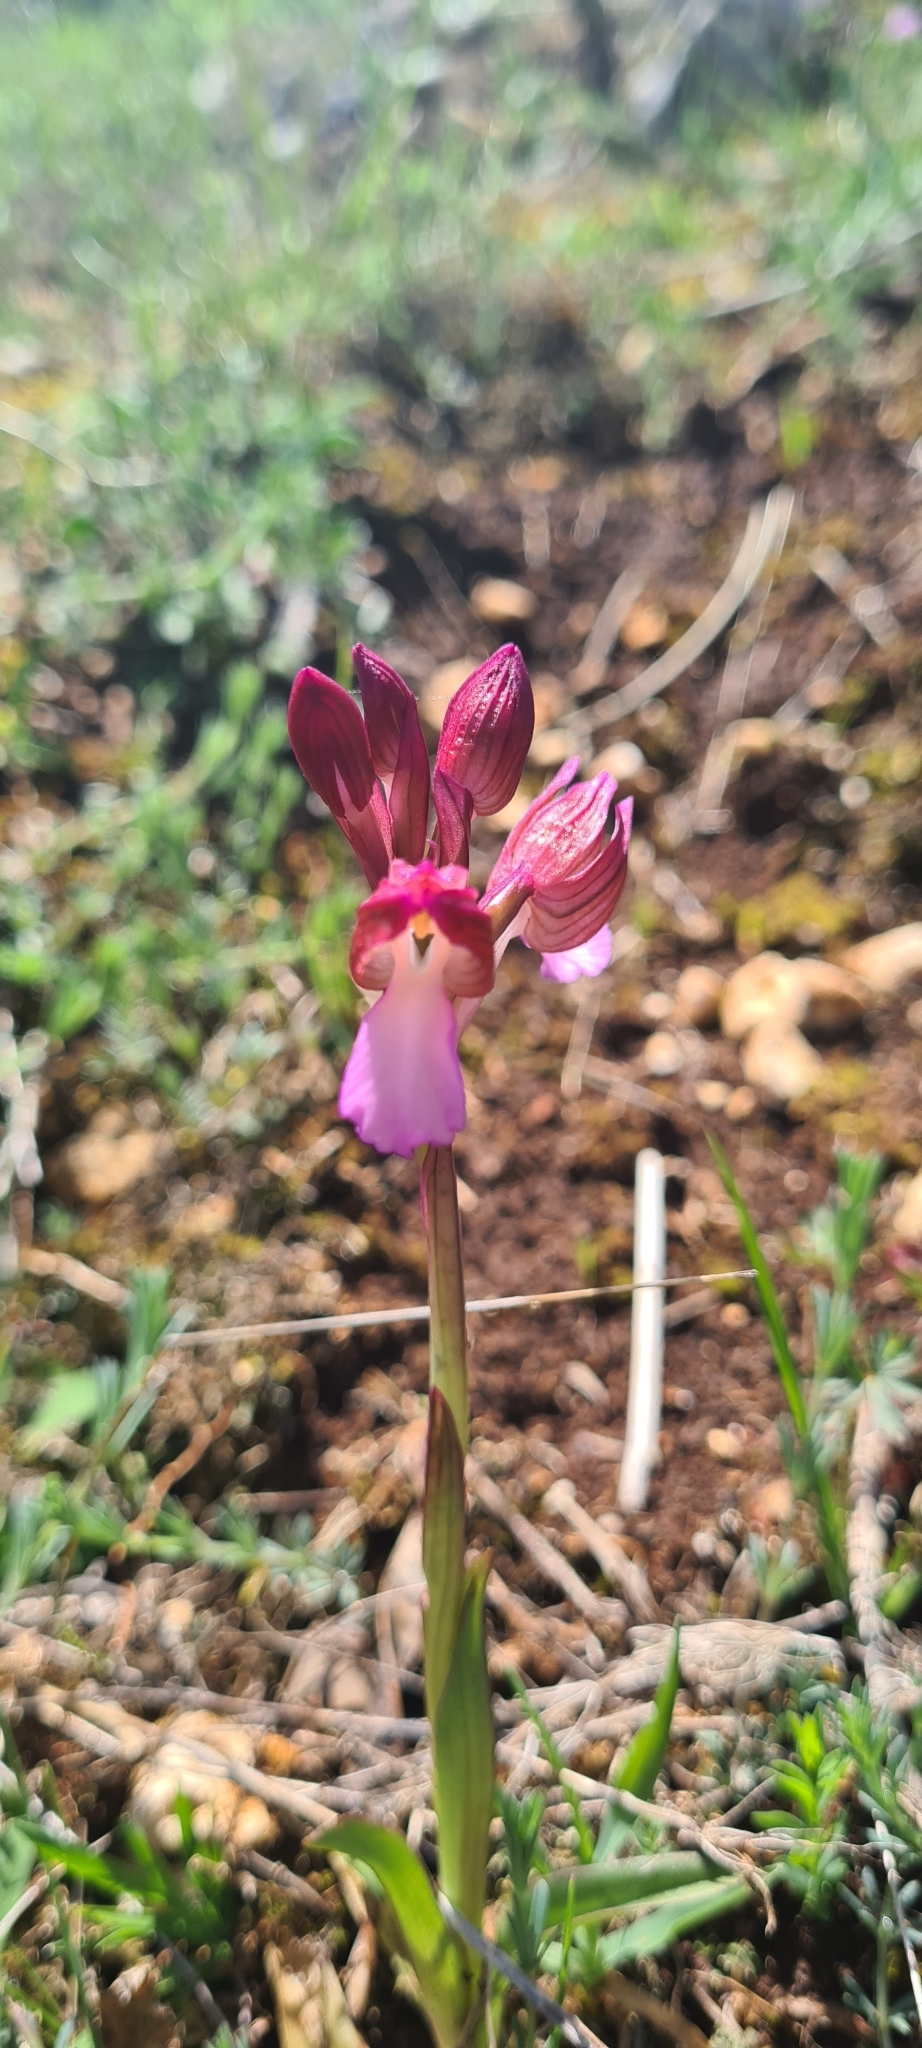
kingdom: Plantae
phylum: Tracheophyta
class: Liliopsida
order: Asparagales
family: Orchidaceae
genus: Anacamptis
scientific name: Anacamptis papilionacea
